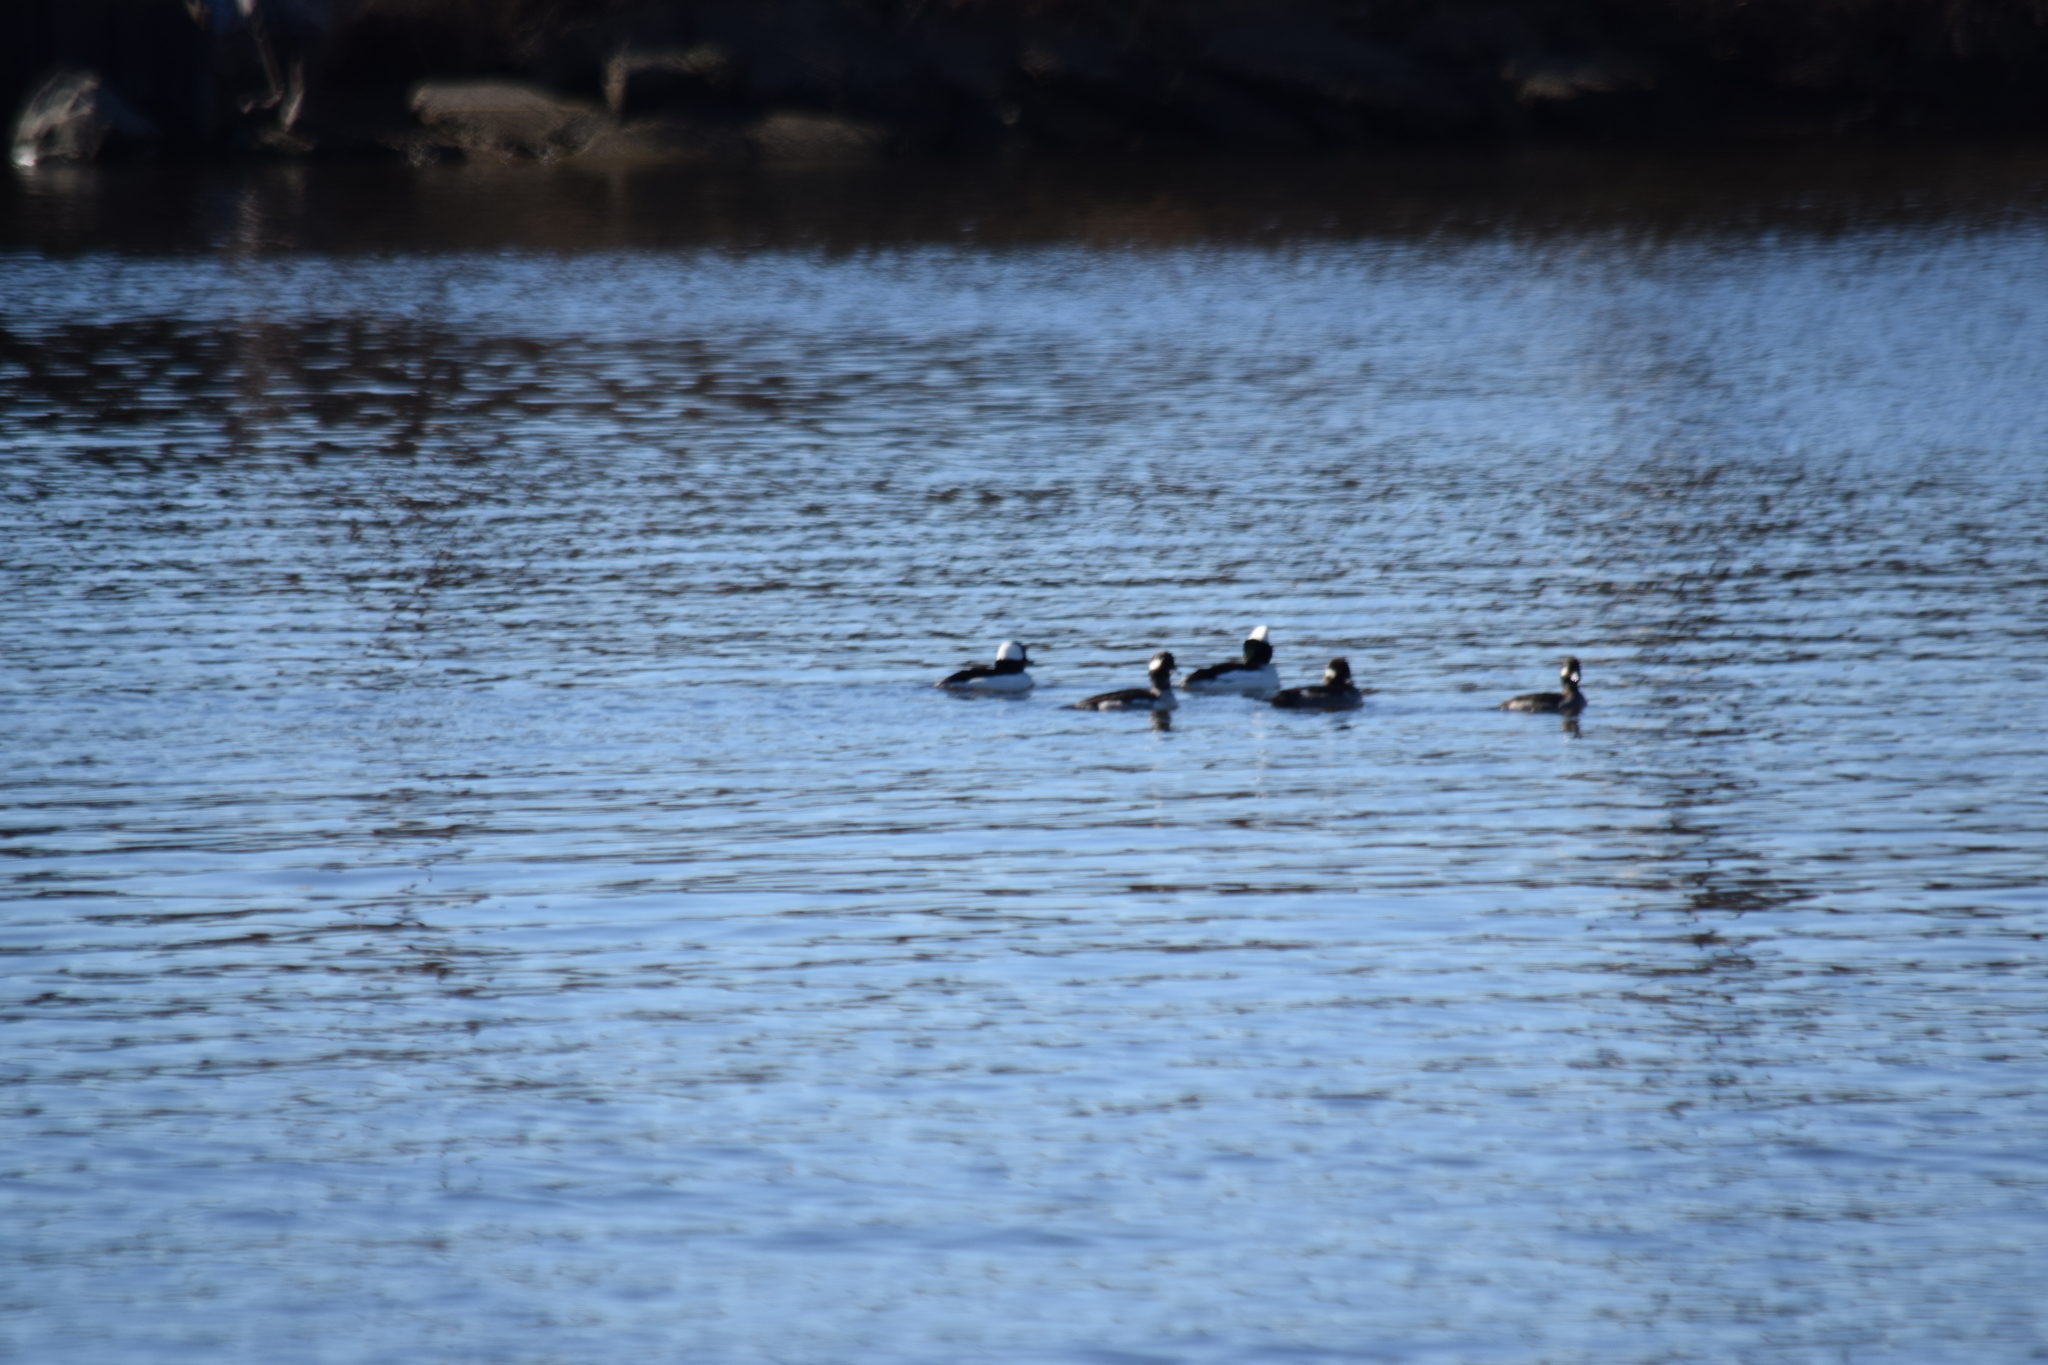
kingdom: Animalia
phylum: Chordata
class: Aves
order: Anseriformes
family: Anatidae
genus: Bucephala
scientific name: Bucephala albeola
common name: Bufflehead
